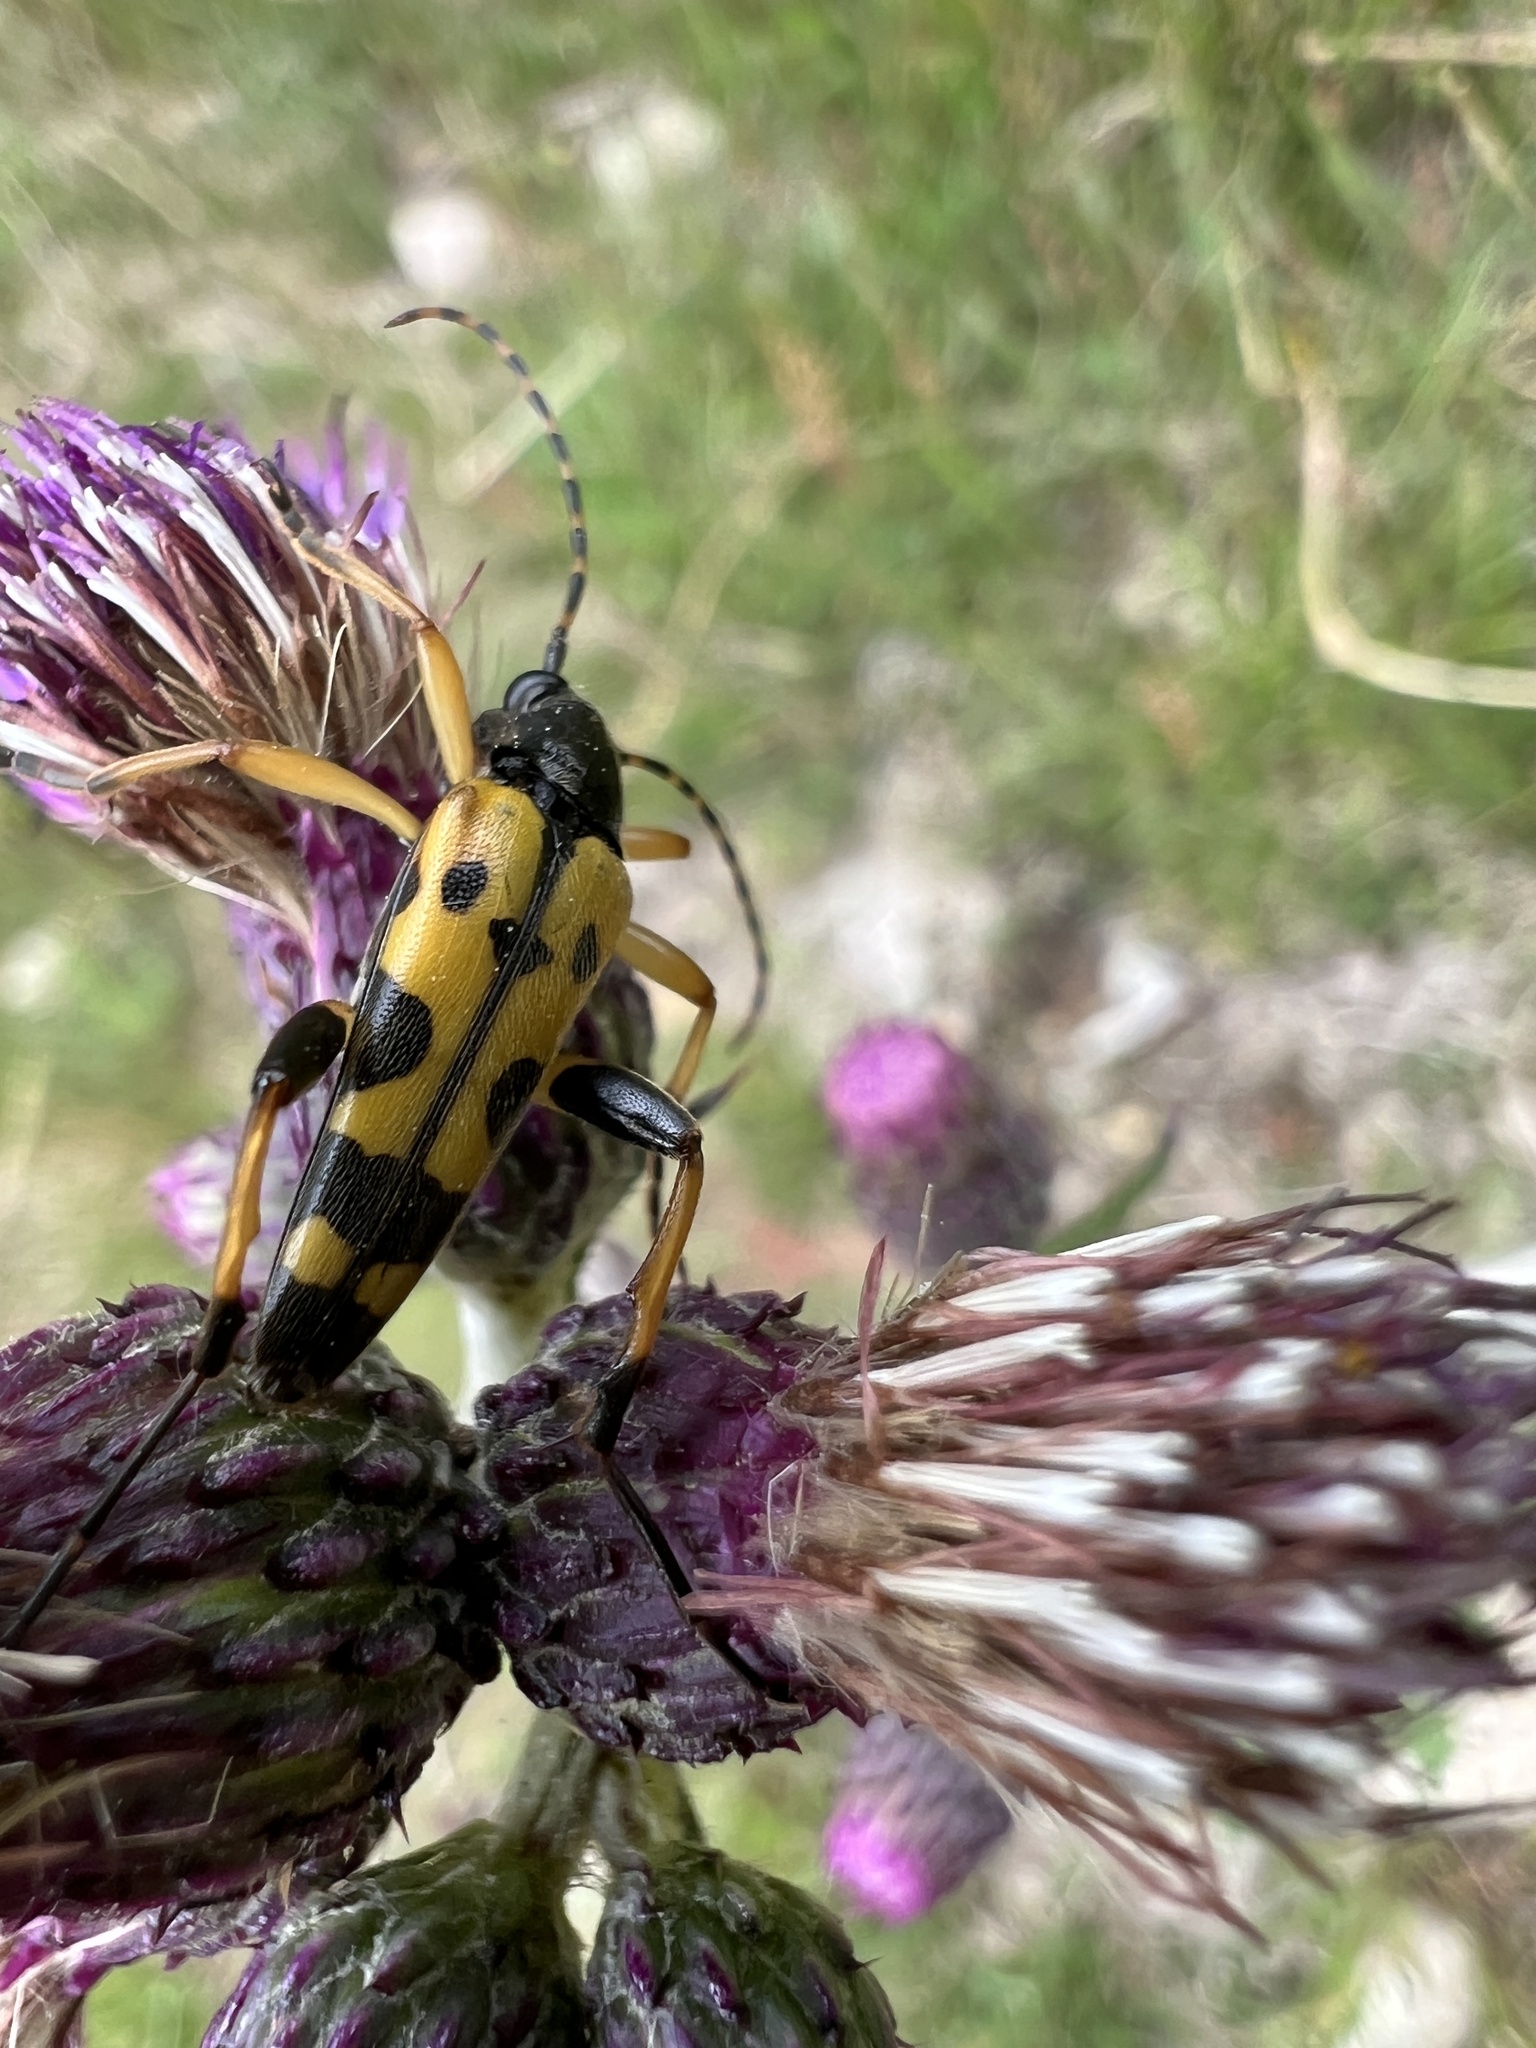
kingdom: Animalia
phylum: Arthropoda
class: Insecta
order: Coleoptera
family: Cerambycidae
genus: Rutpela
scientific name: Rutpela maculata
